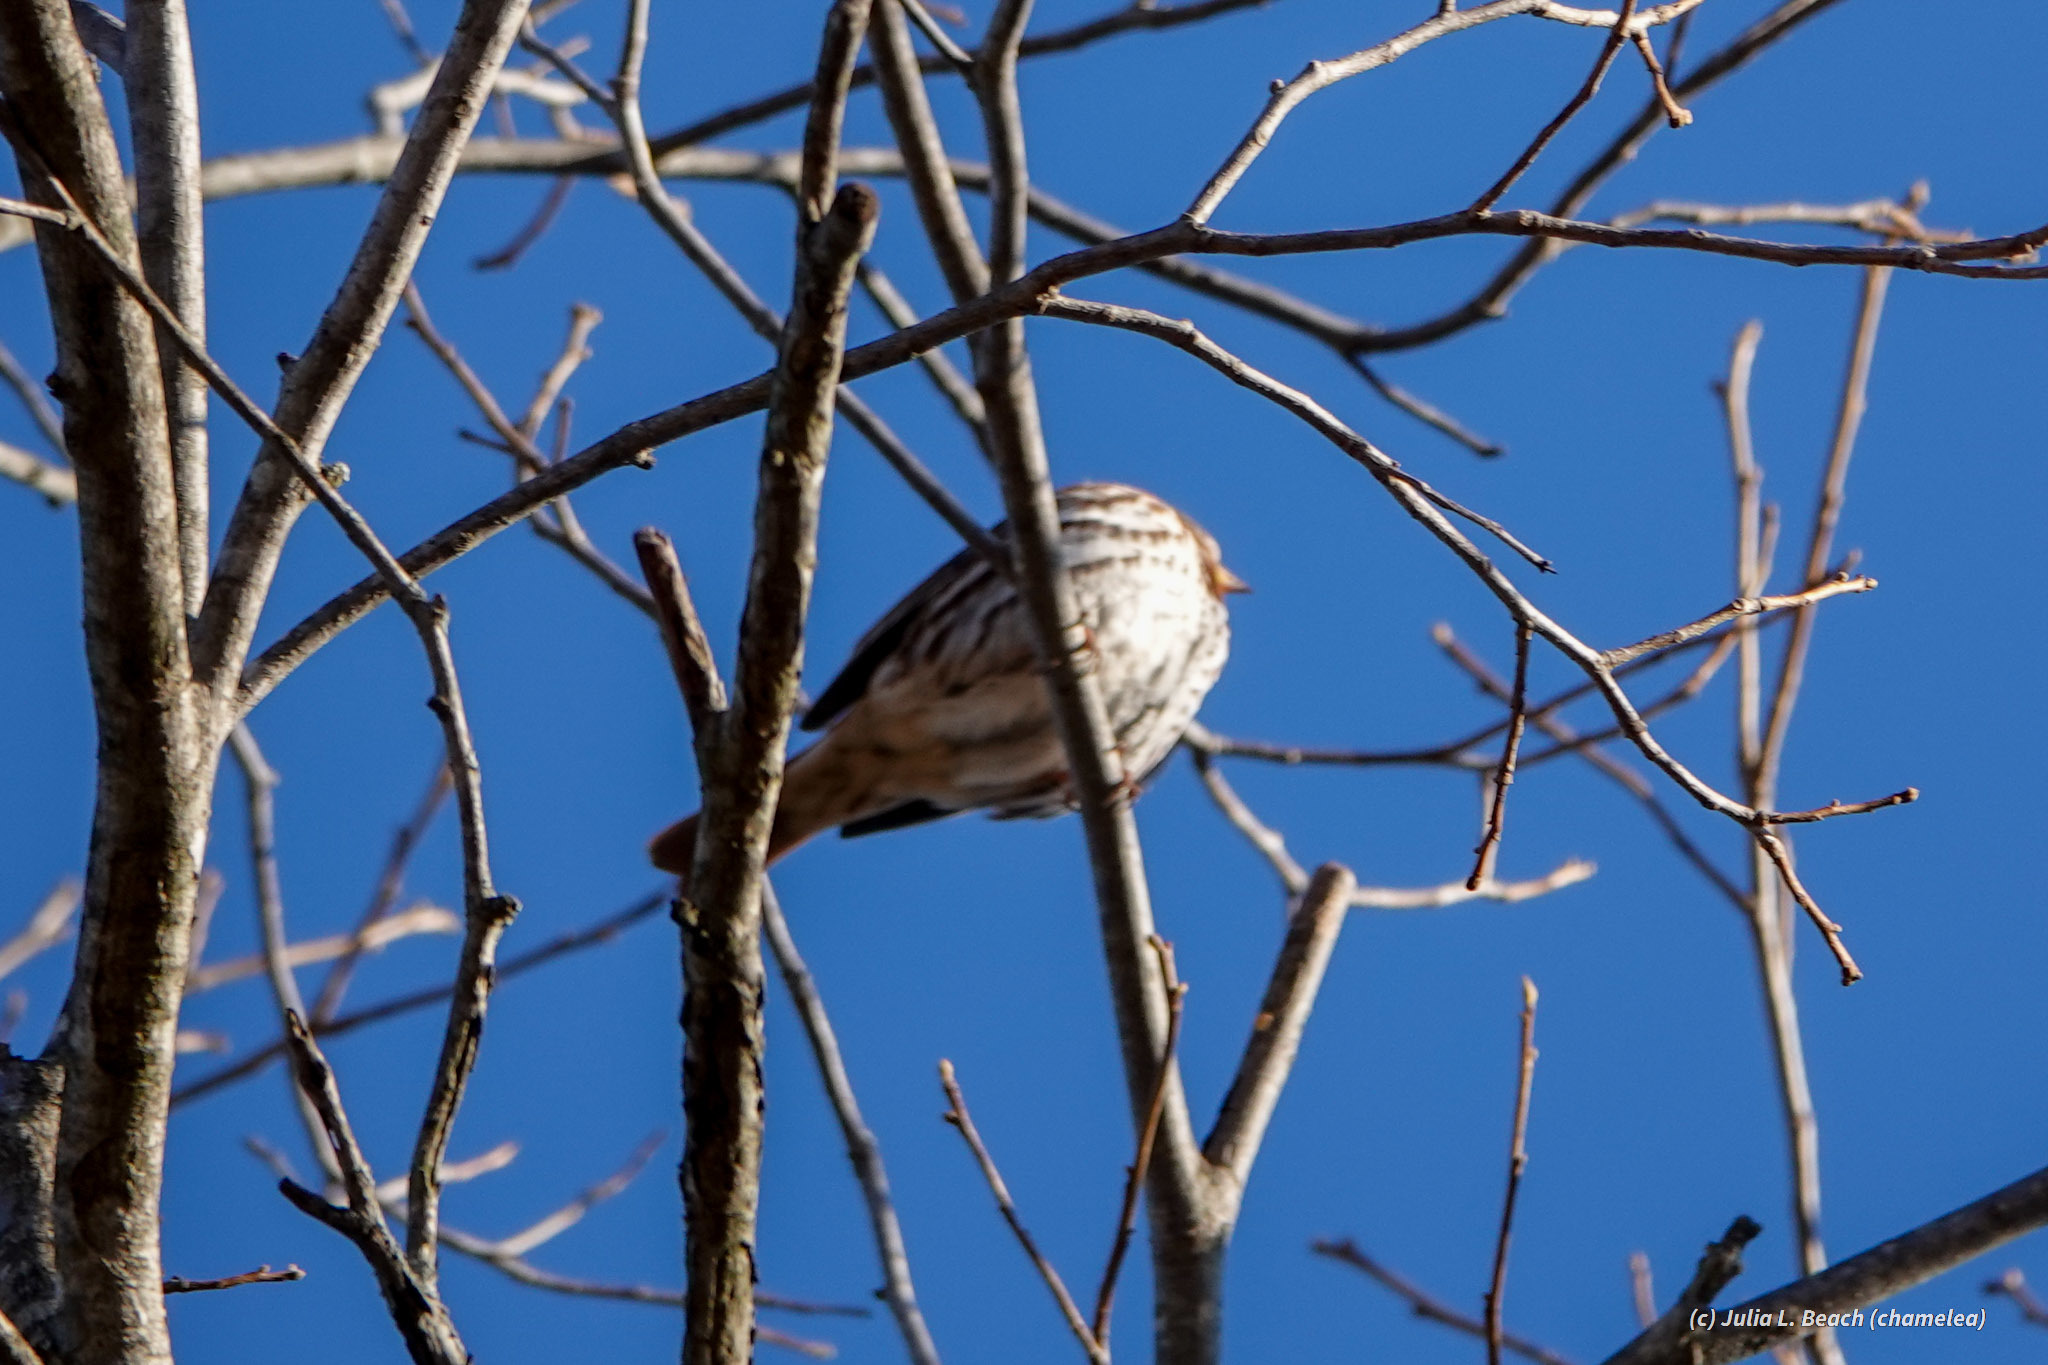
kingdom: Animalia
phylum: Chordata
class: Aves
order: Passeriformes
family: Passerellidae
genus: Passerella
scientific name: Passerella iliaca
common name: Fox sparrow
